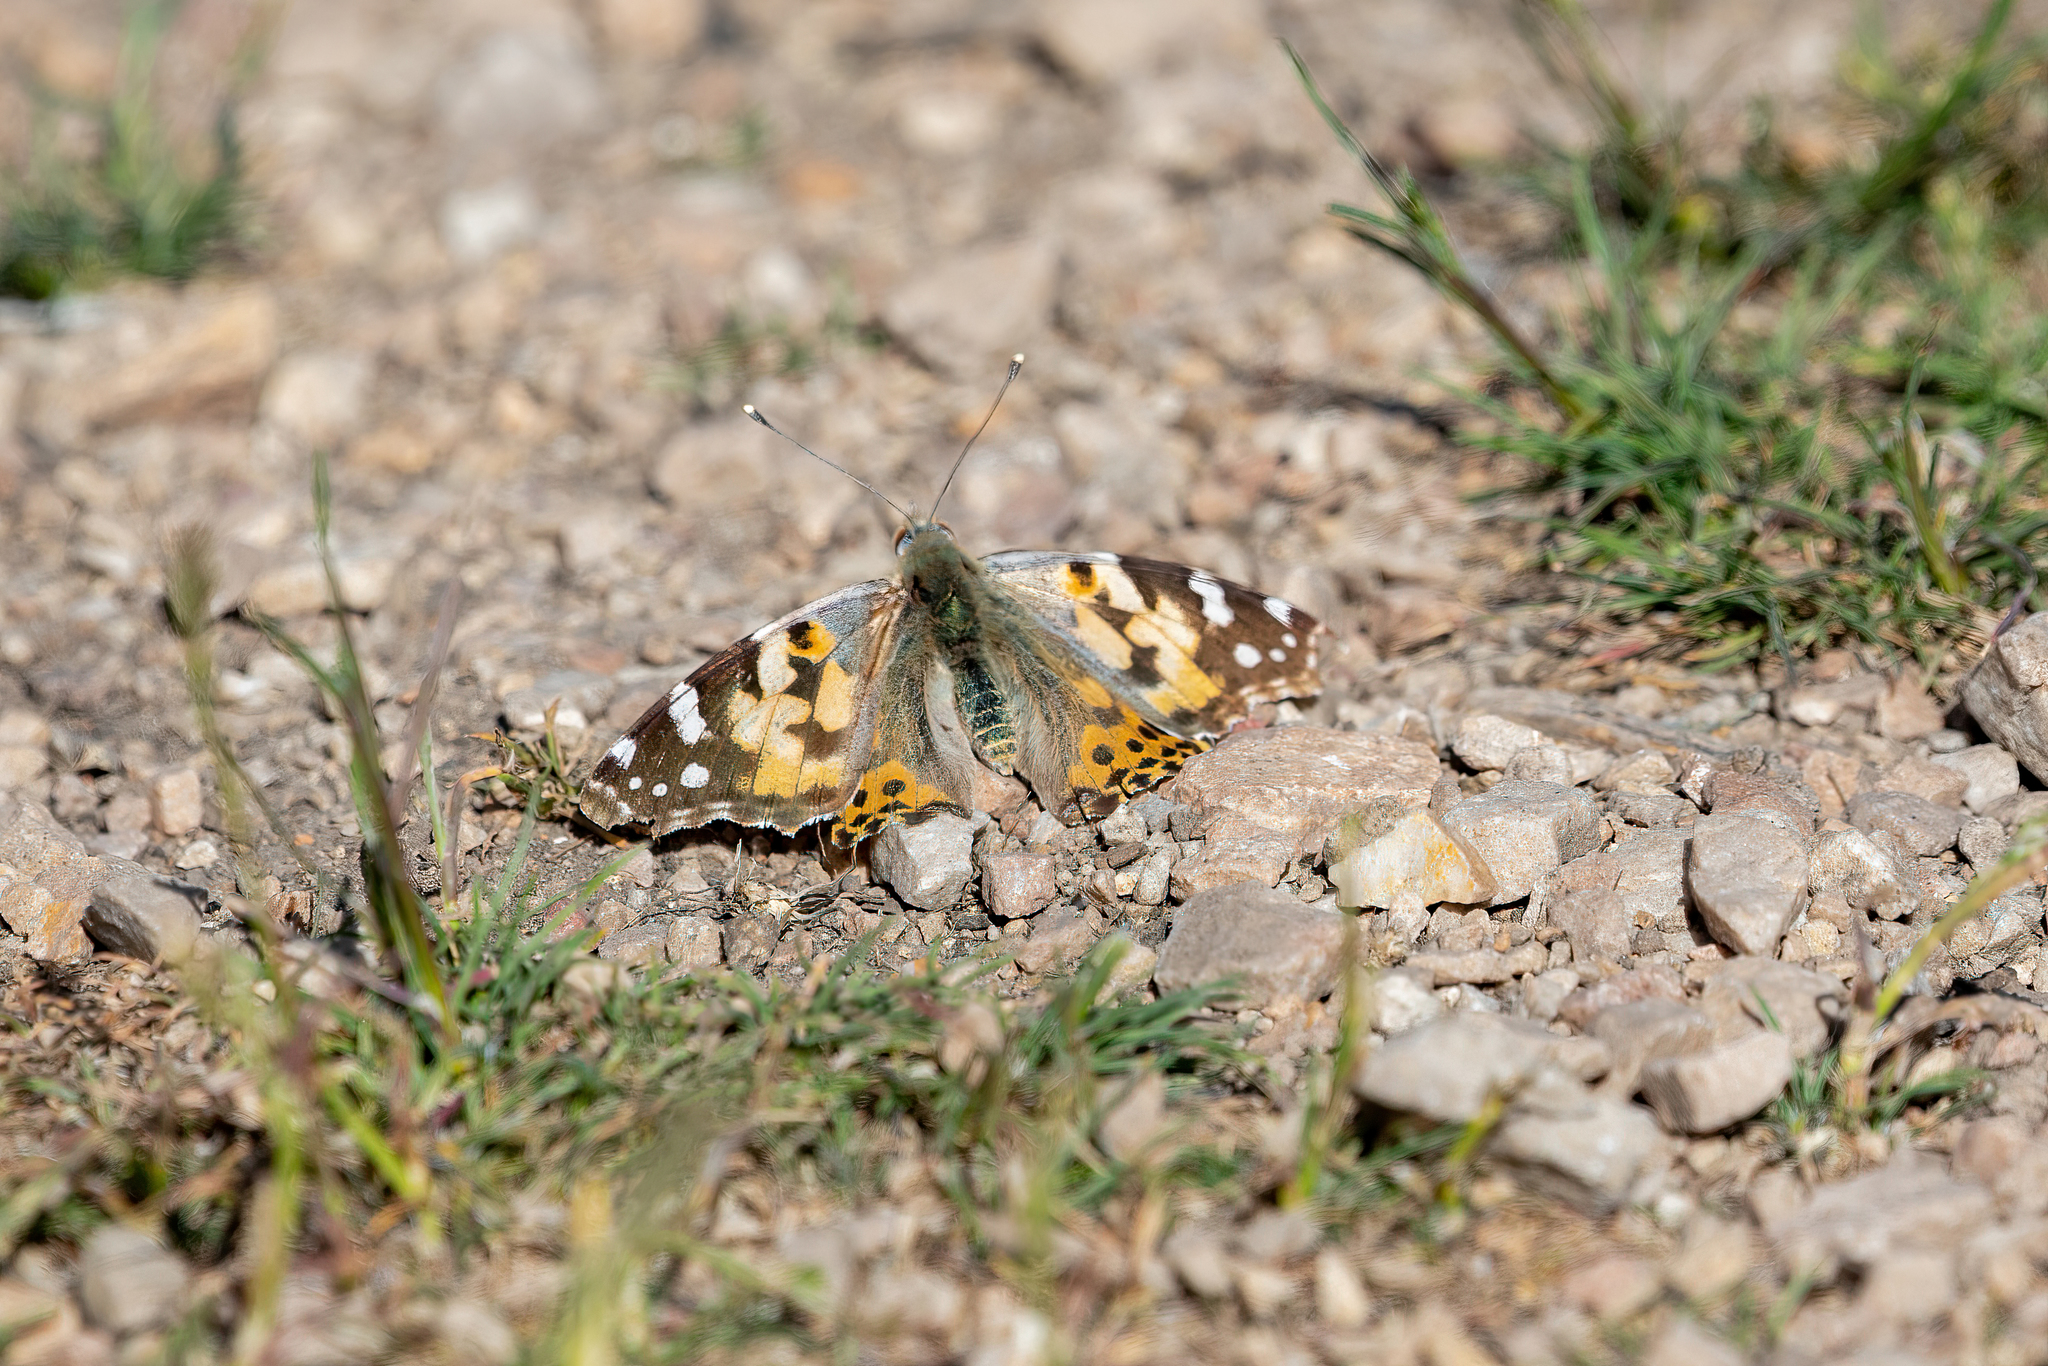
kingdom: Animalia
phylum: Arthropoda
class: Insecta
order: Lepidoptera
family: Nymphalidae
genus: Vanessa
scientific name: Vanessa cardui
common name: Painted lady
